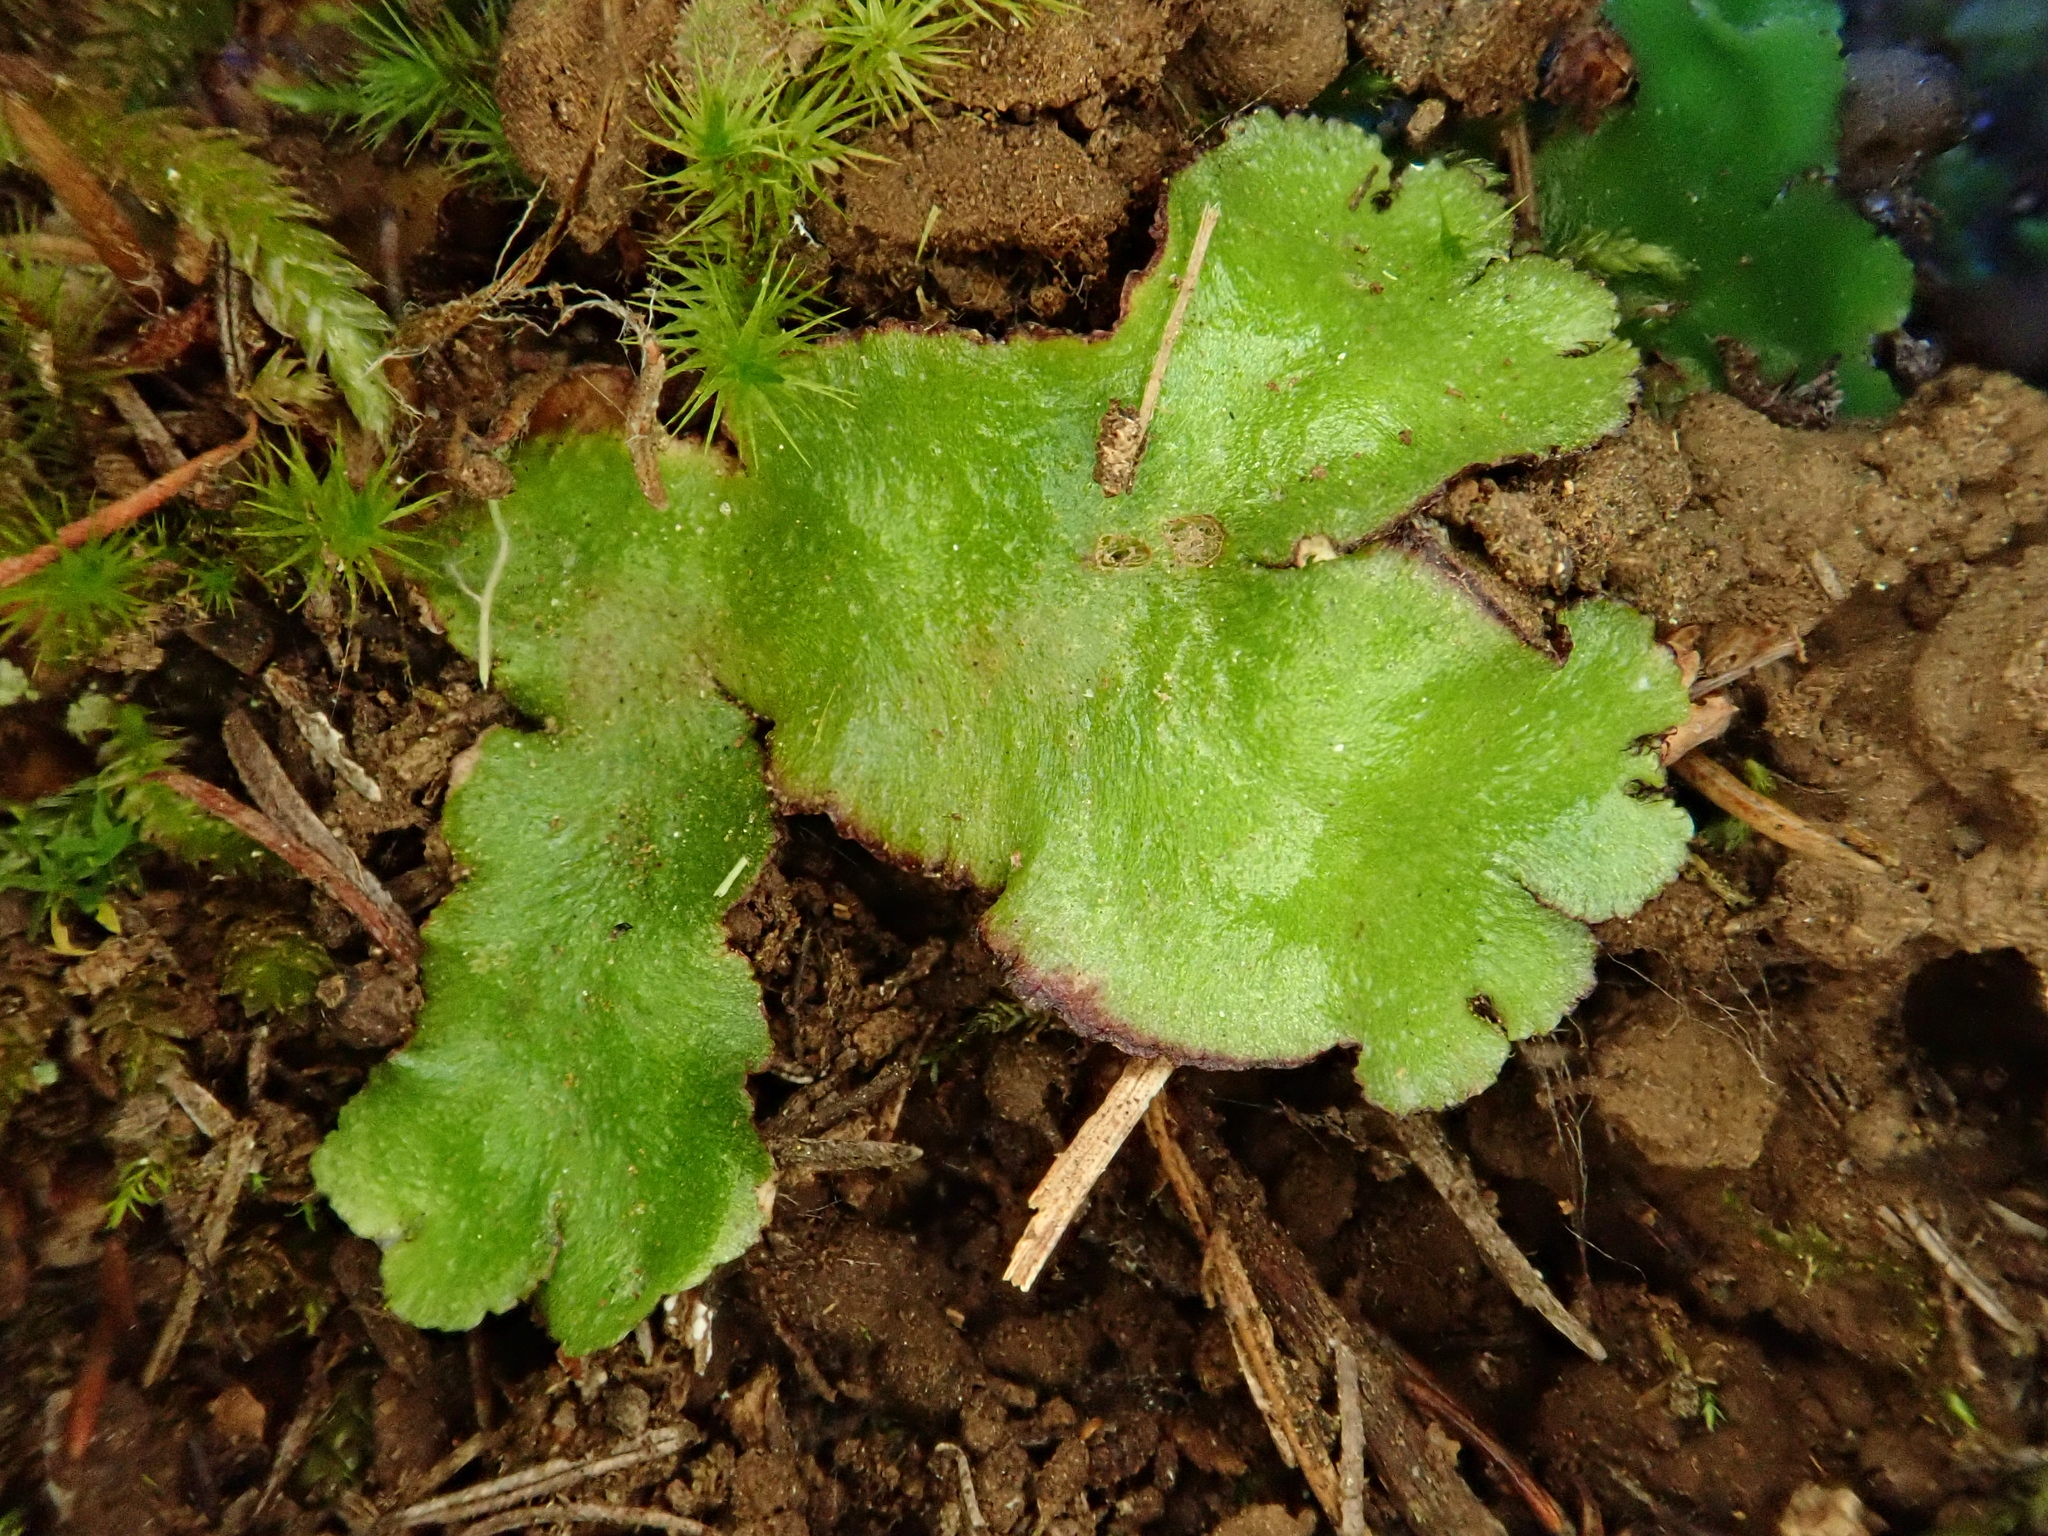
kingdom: Plantae
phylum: Marchantiophyta
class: Marchantiopsida
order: Marchantiales
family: Aytoniaceae
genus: Reboulia
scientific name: Reboulia hemisphaerica
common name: Purple-margined liverwort
